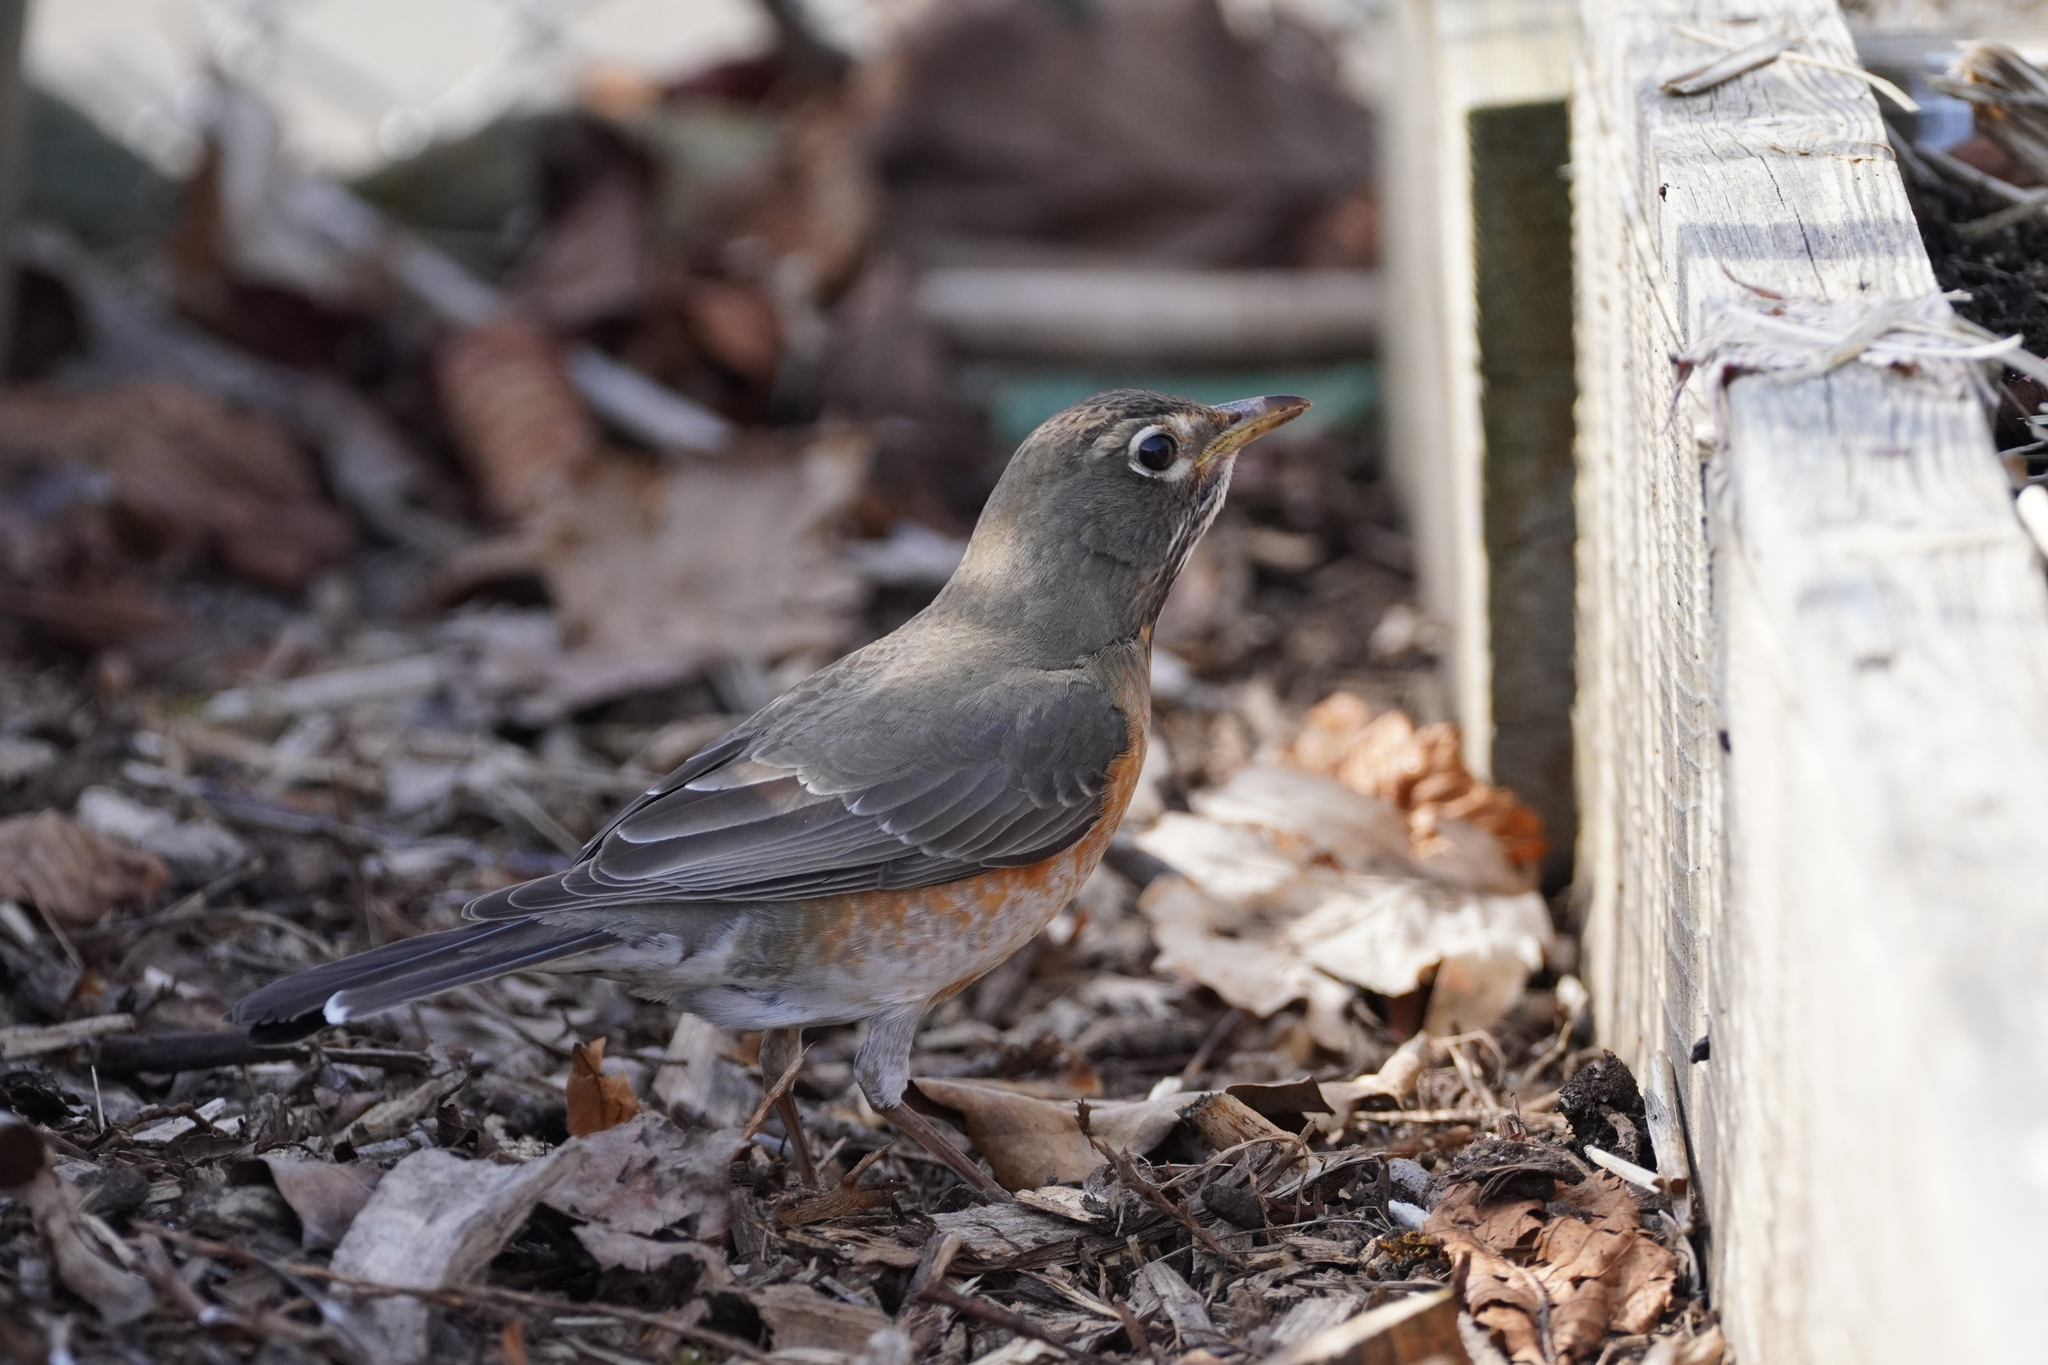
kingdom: Animalia
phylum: Chordata
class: Aves
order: Passeriformes
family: Turdidae
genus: Turdus
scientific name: Turdus migratorius
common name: American robin
